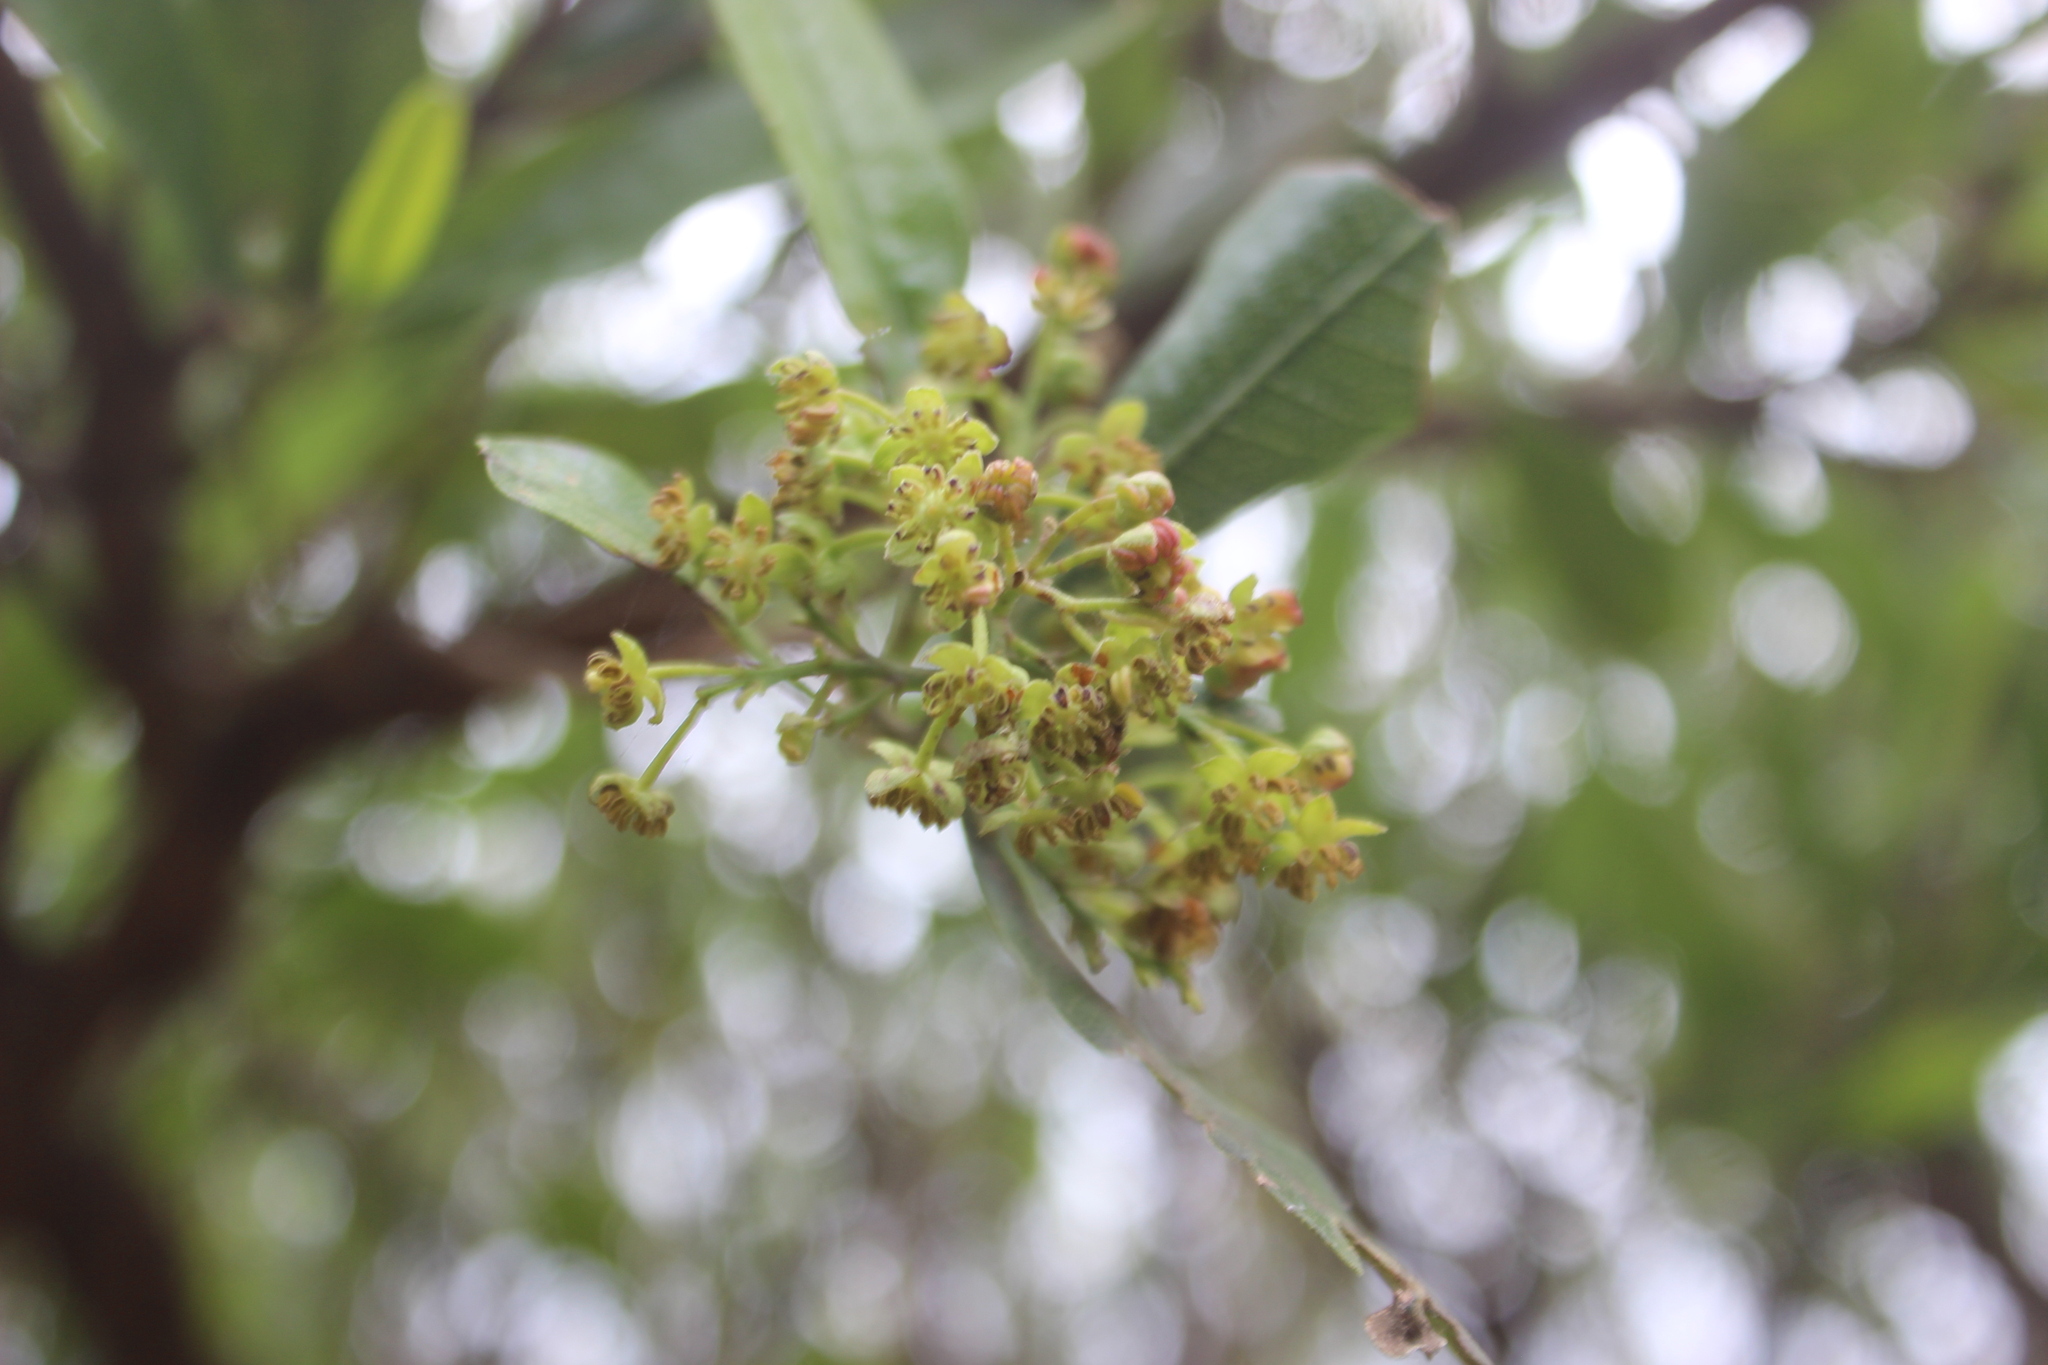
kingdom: Plantae
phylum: Tracheophyta
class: Magnoliopsida
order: Sapindales
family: Sapindaceae
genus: Dodonaea
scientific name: Dodonaea viscosa
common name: Hopbush
